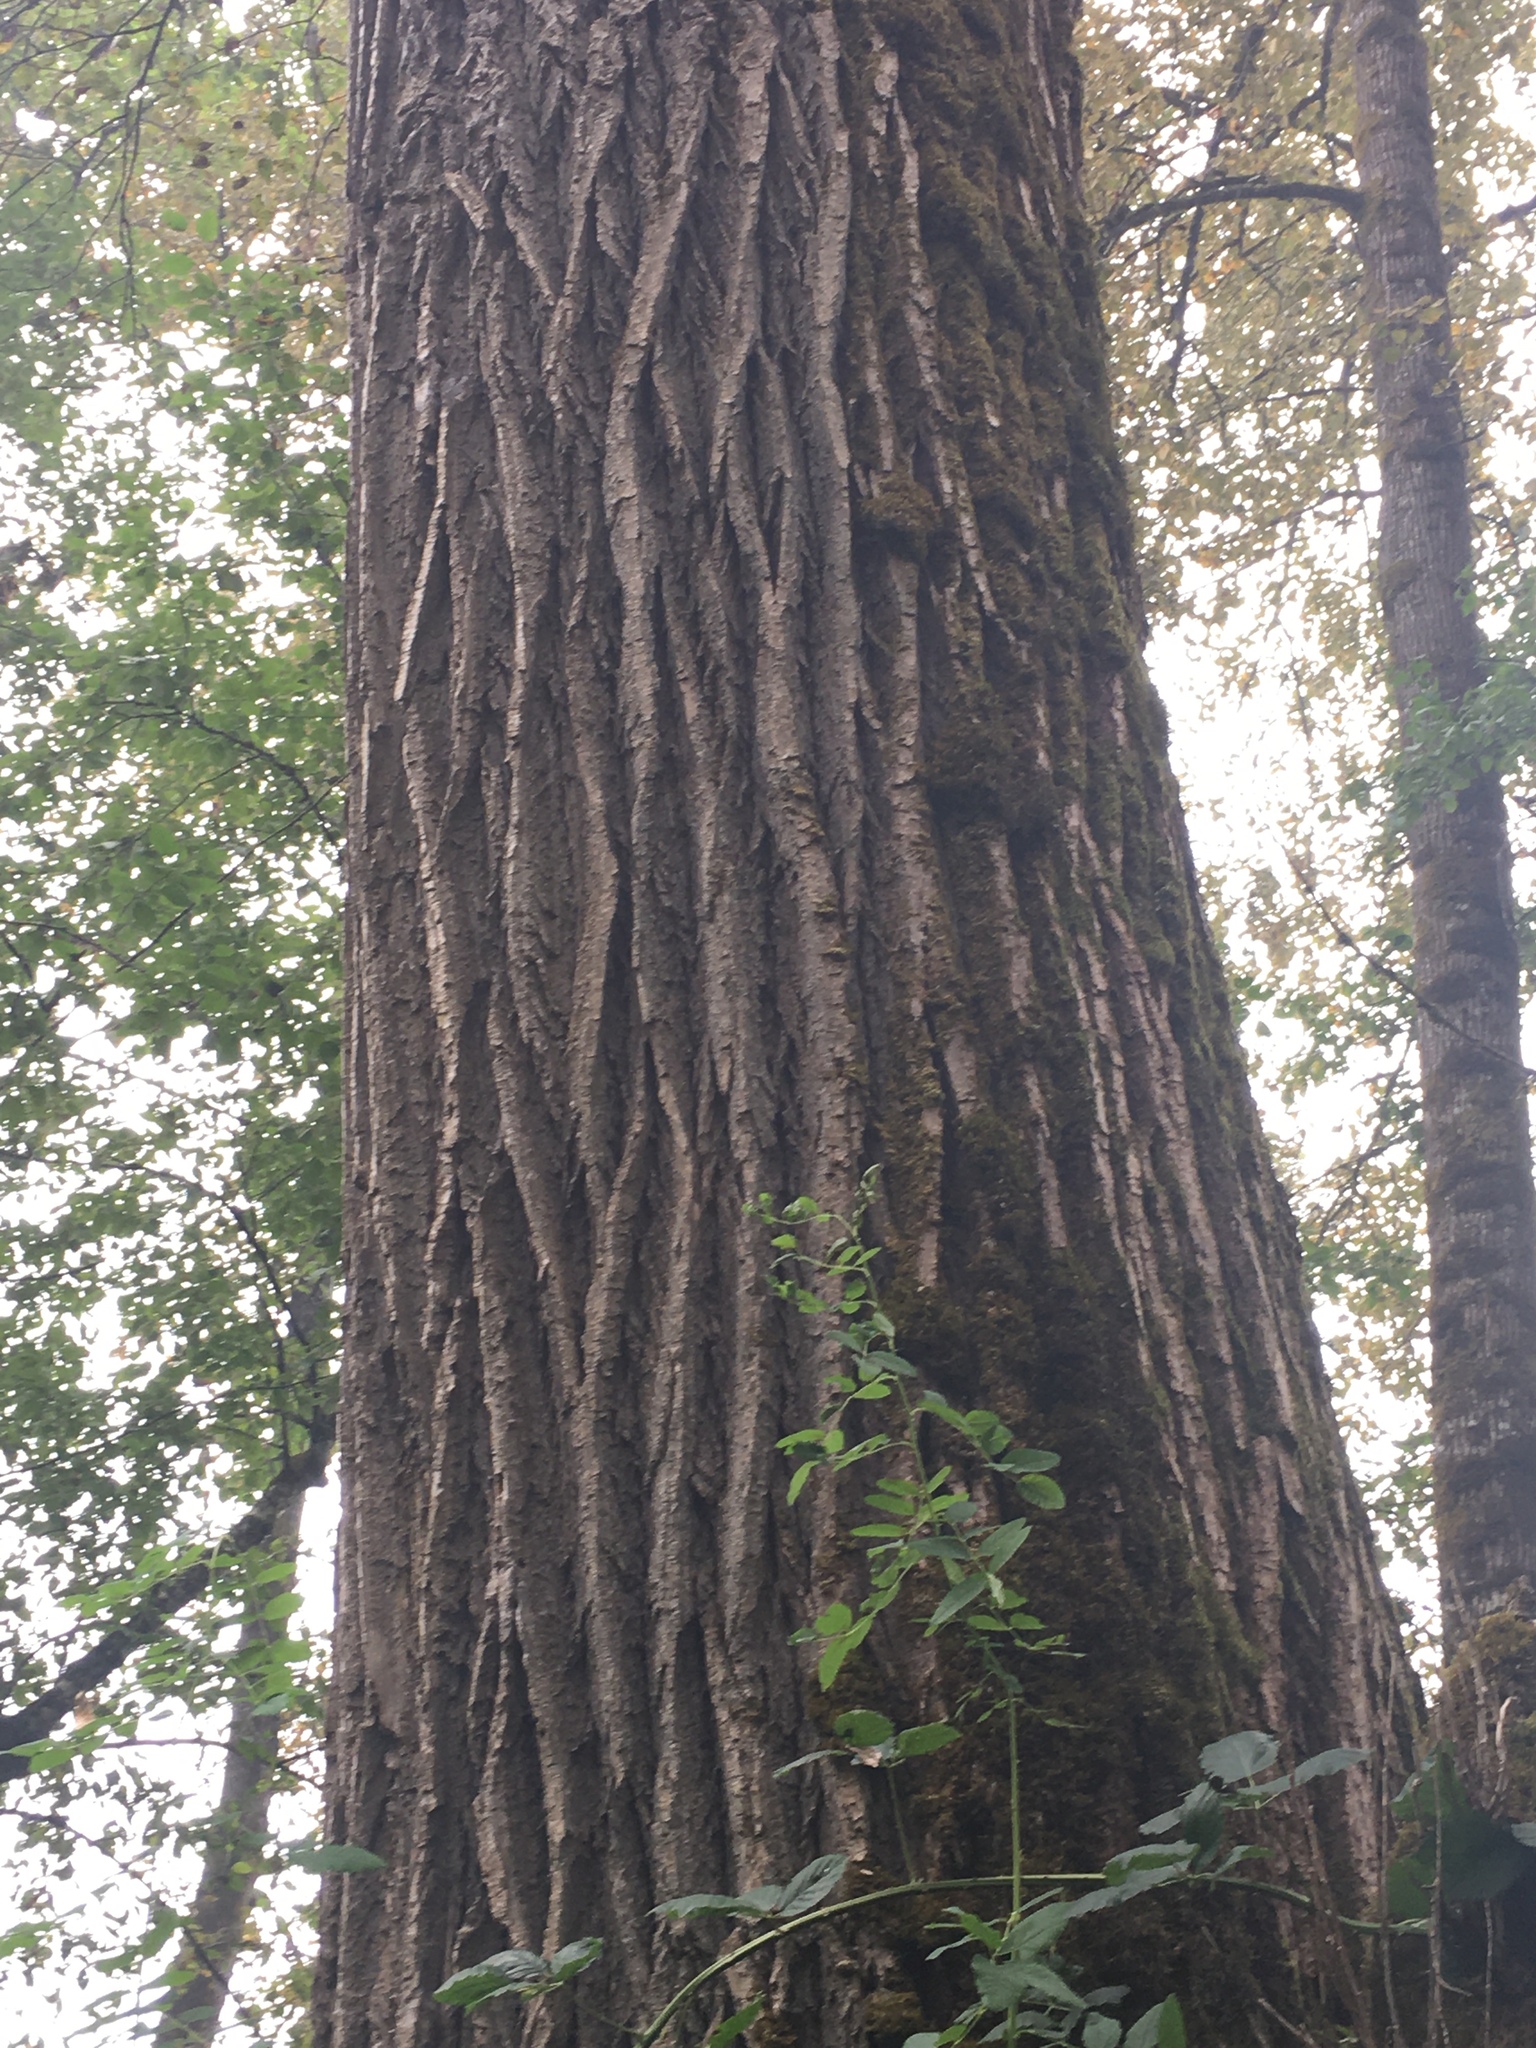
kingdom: Plantae
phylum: Tracheophyta
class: Magnoliopsida
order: Malpighiales
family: Salicaceae
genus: Populus
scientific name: Populus trichocarpa
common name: Black cottonwood
